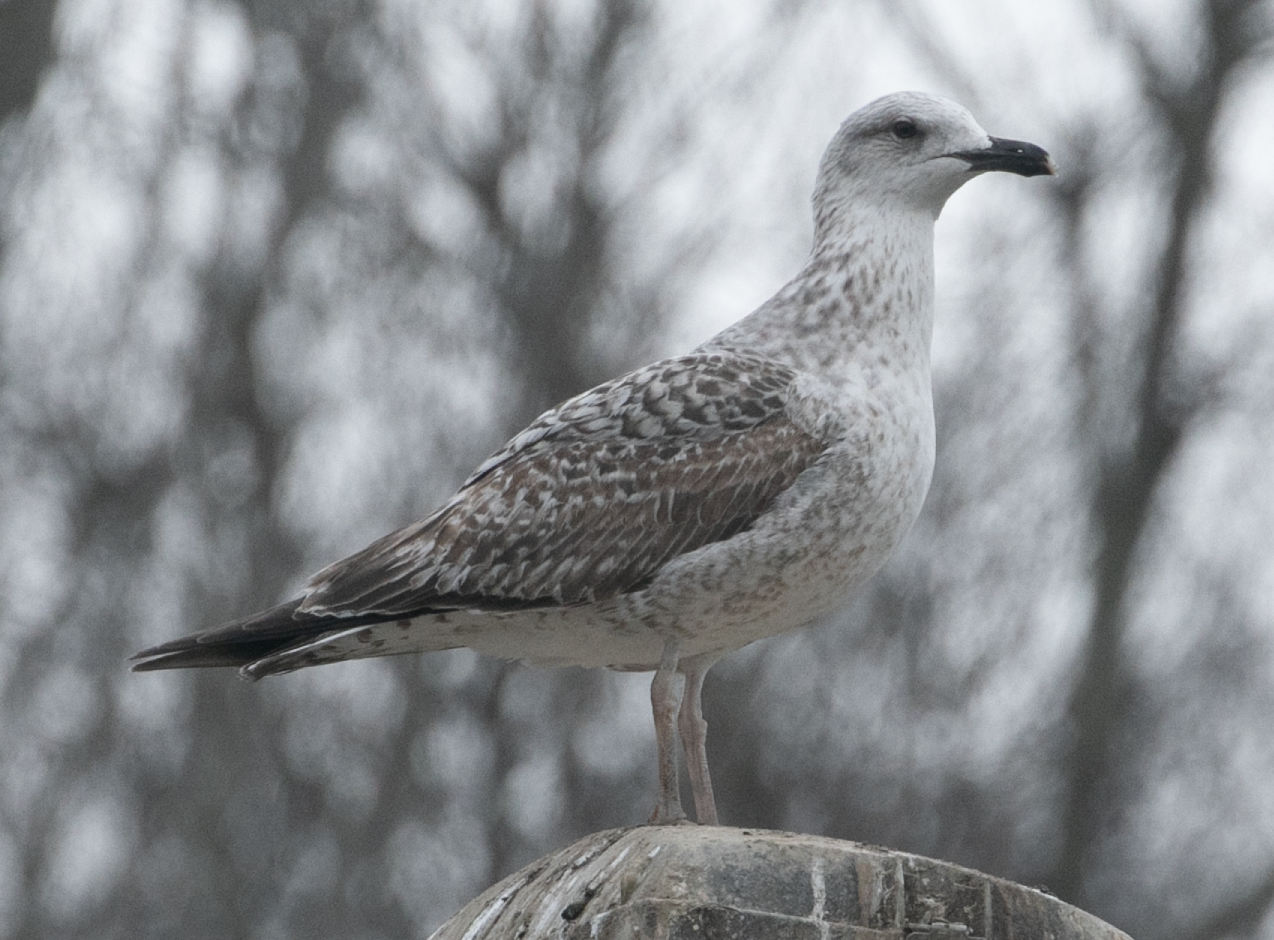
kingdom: Animalia
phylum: Chordata
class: Aves
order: Charadriiformes
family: Laridae
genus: Larus
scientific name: Larus michahellis
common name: Yellow-legged gull
